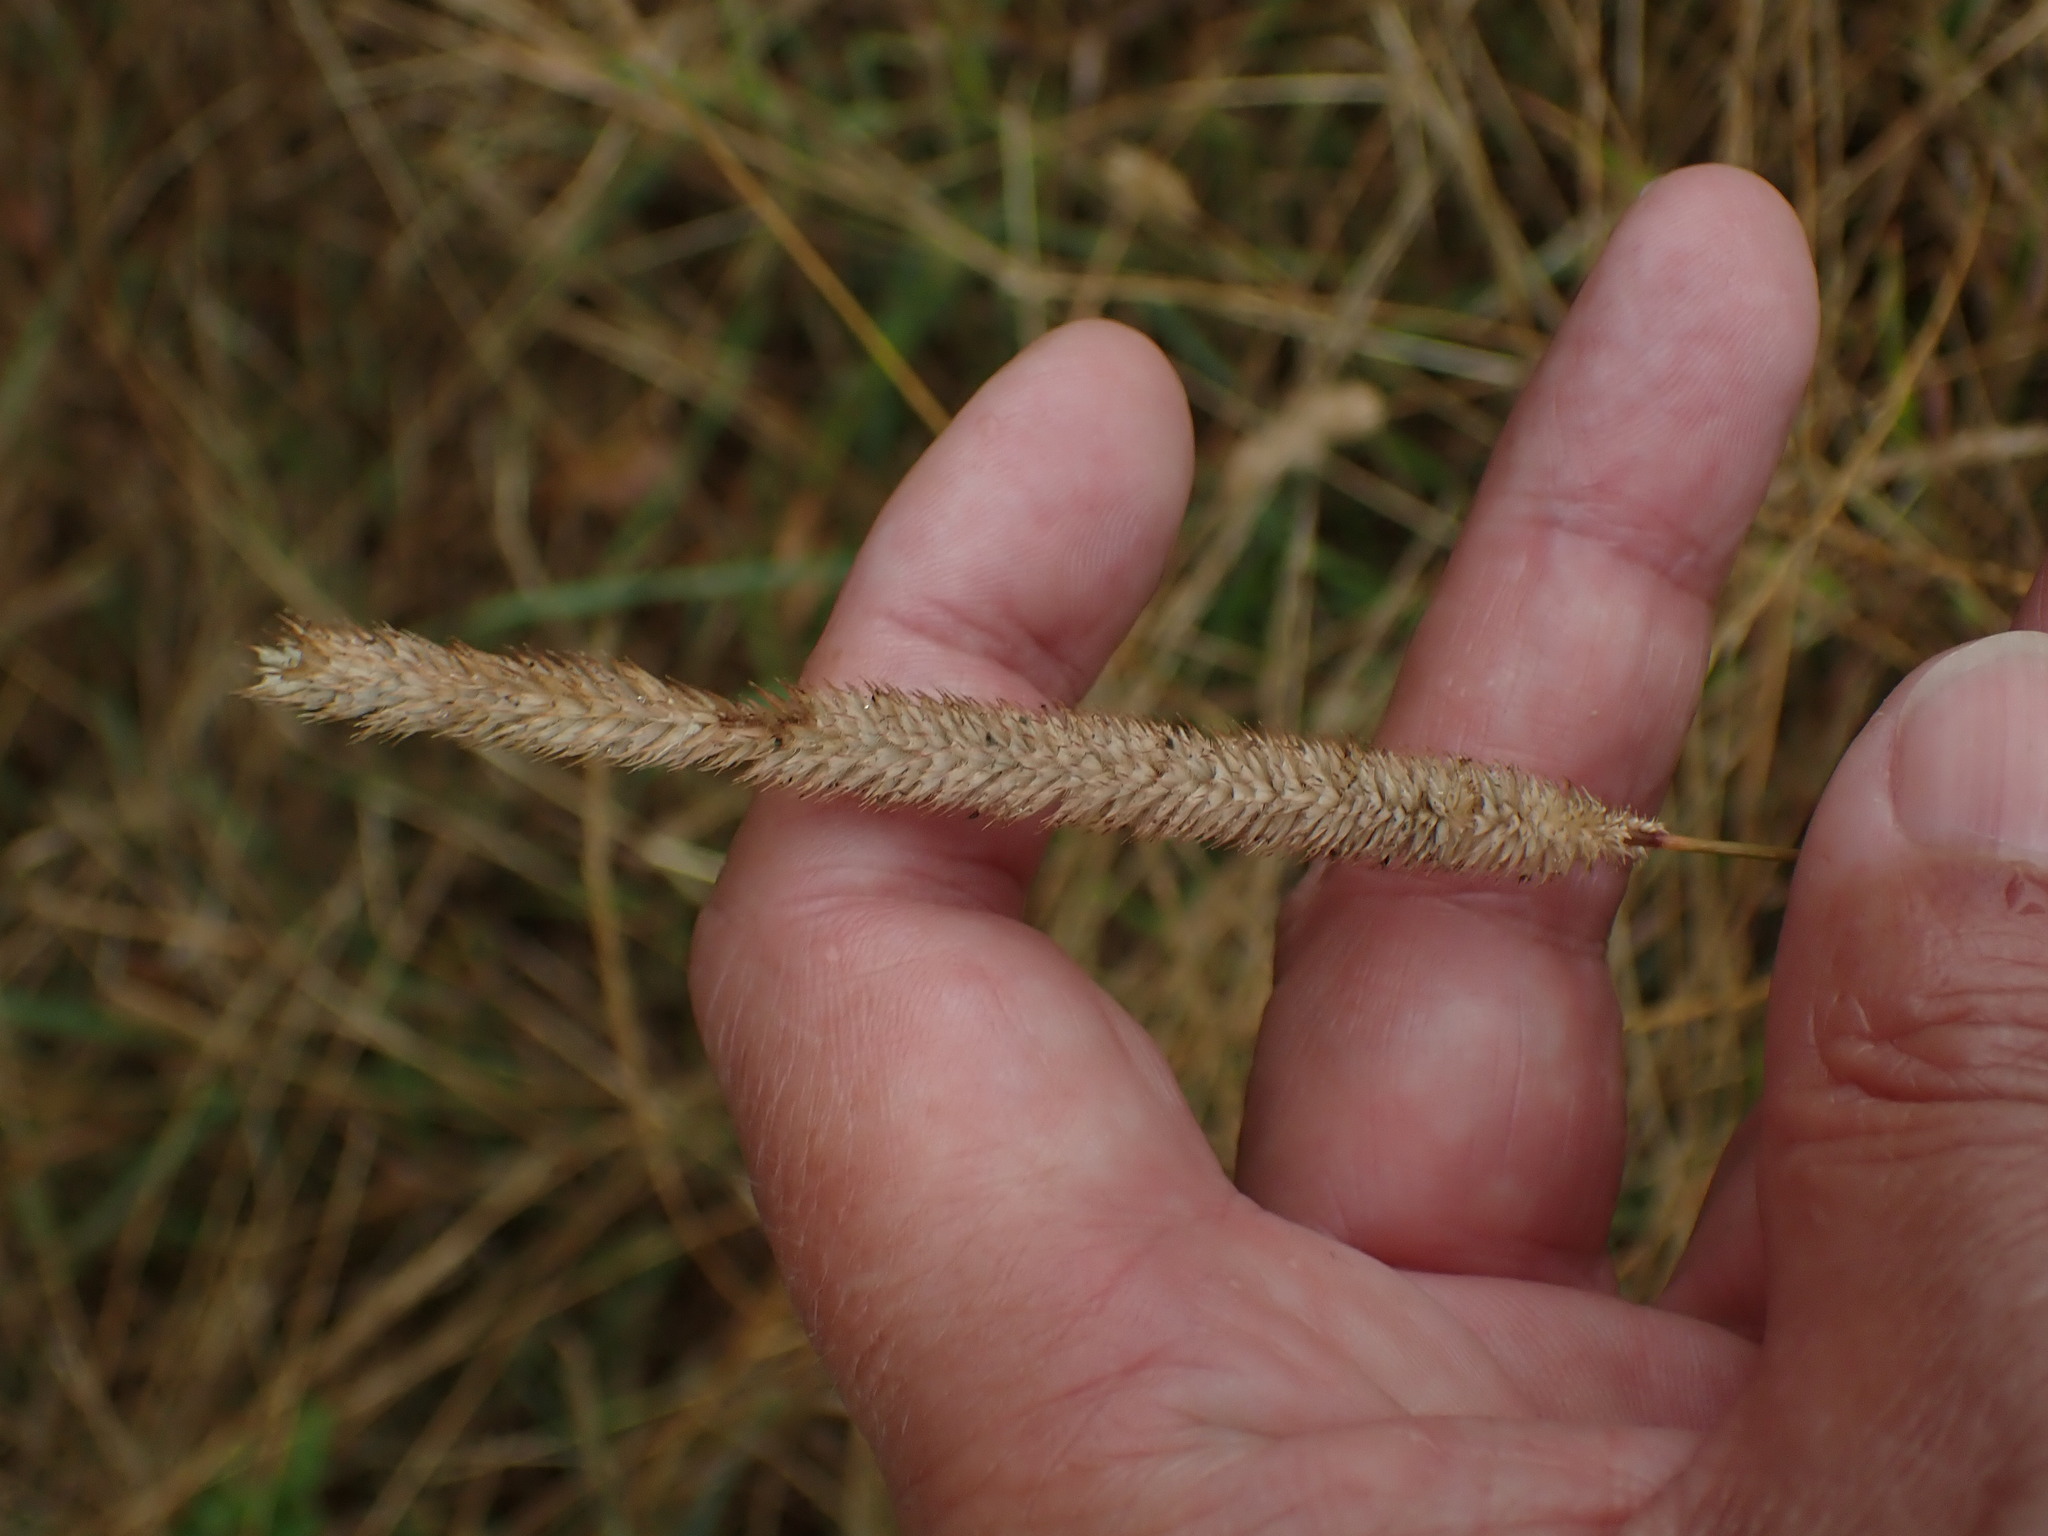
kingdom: Plantae
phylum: Tracheophyta
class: Liliopsida
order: Poales
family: Poaceae
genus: Phleum
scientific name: Phleum pratense
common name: Timothy grass
